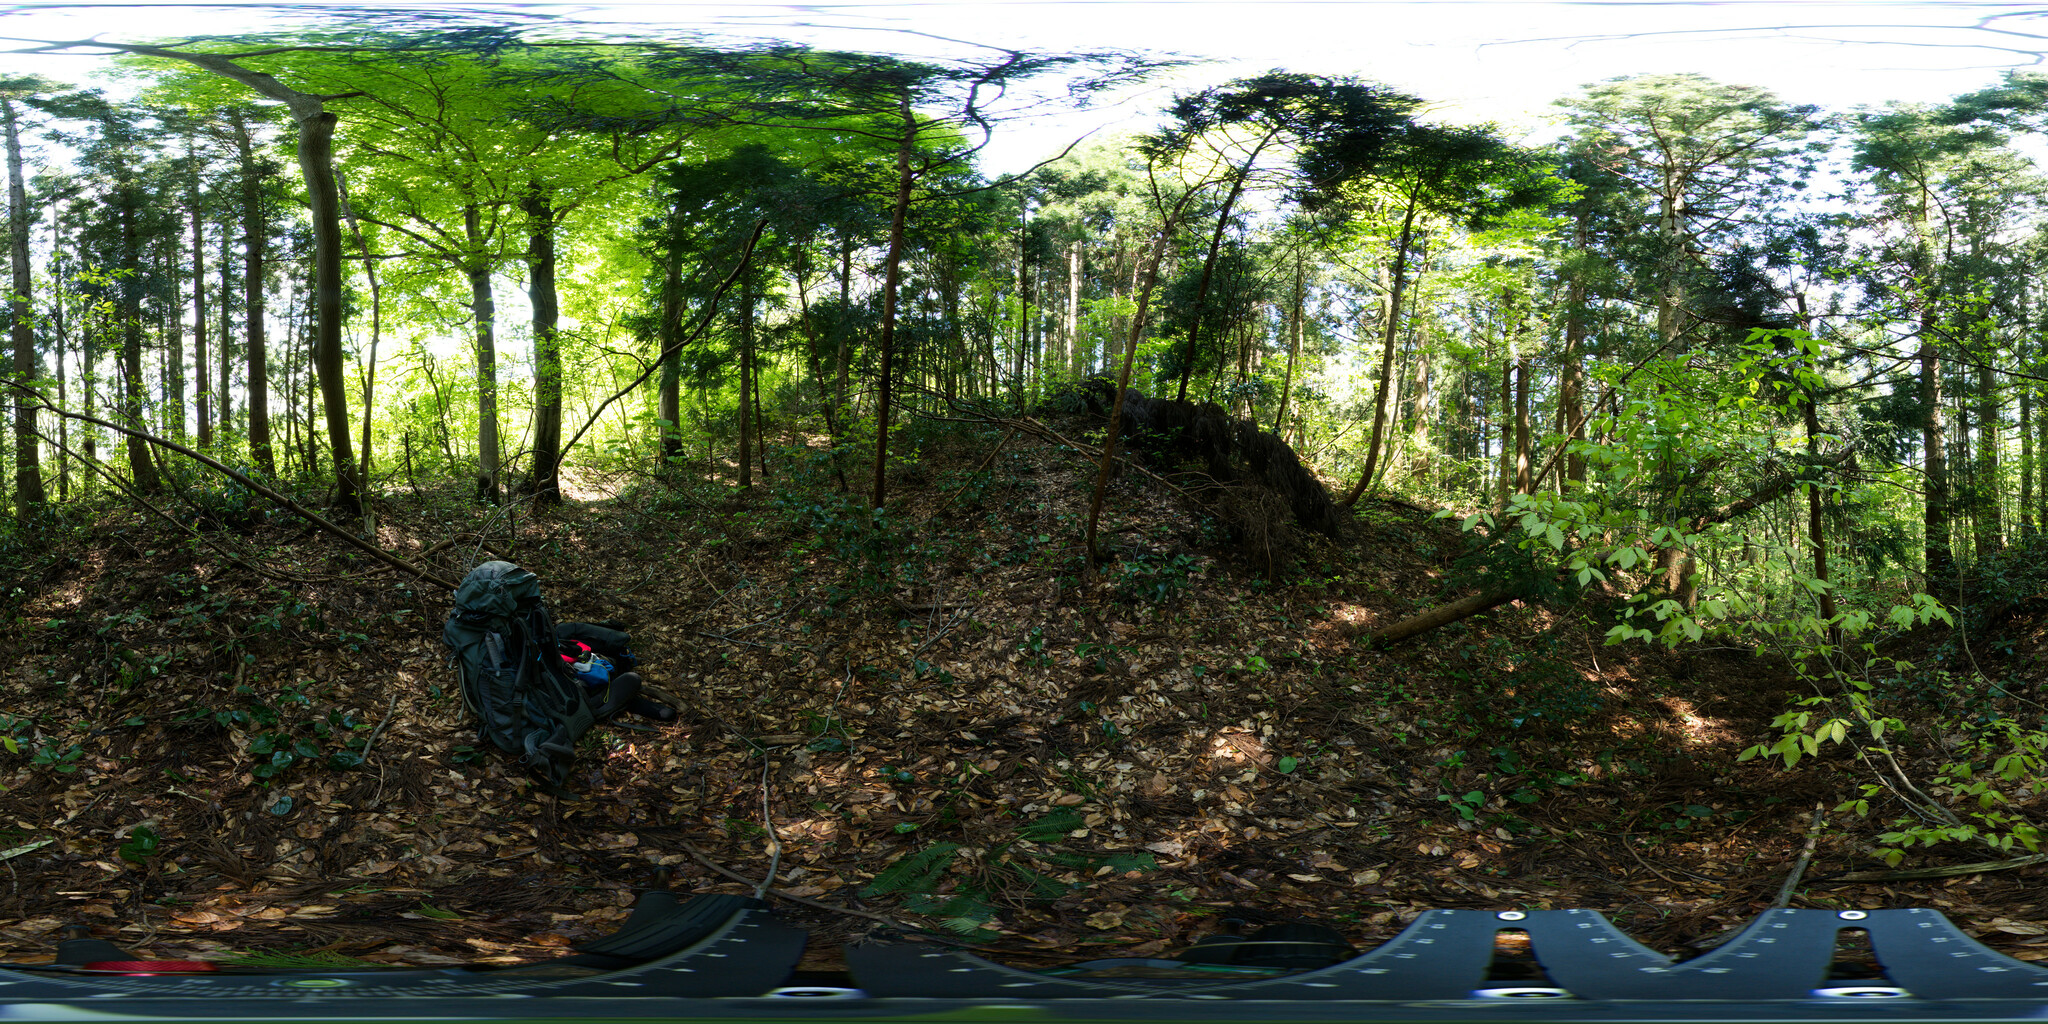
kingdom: Plantae
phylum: Tracheophyta
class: Magnoliopsida
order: Piperales
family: Aristolochiaceae
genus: Asarum
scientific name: Asarum yoshikawae
